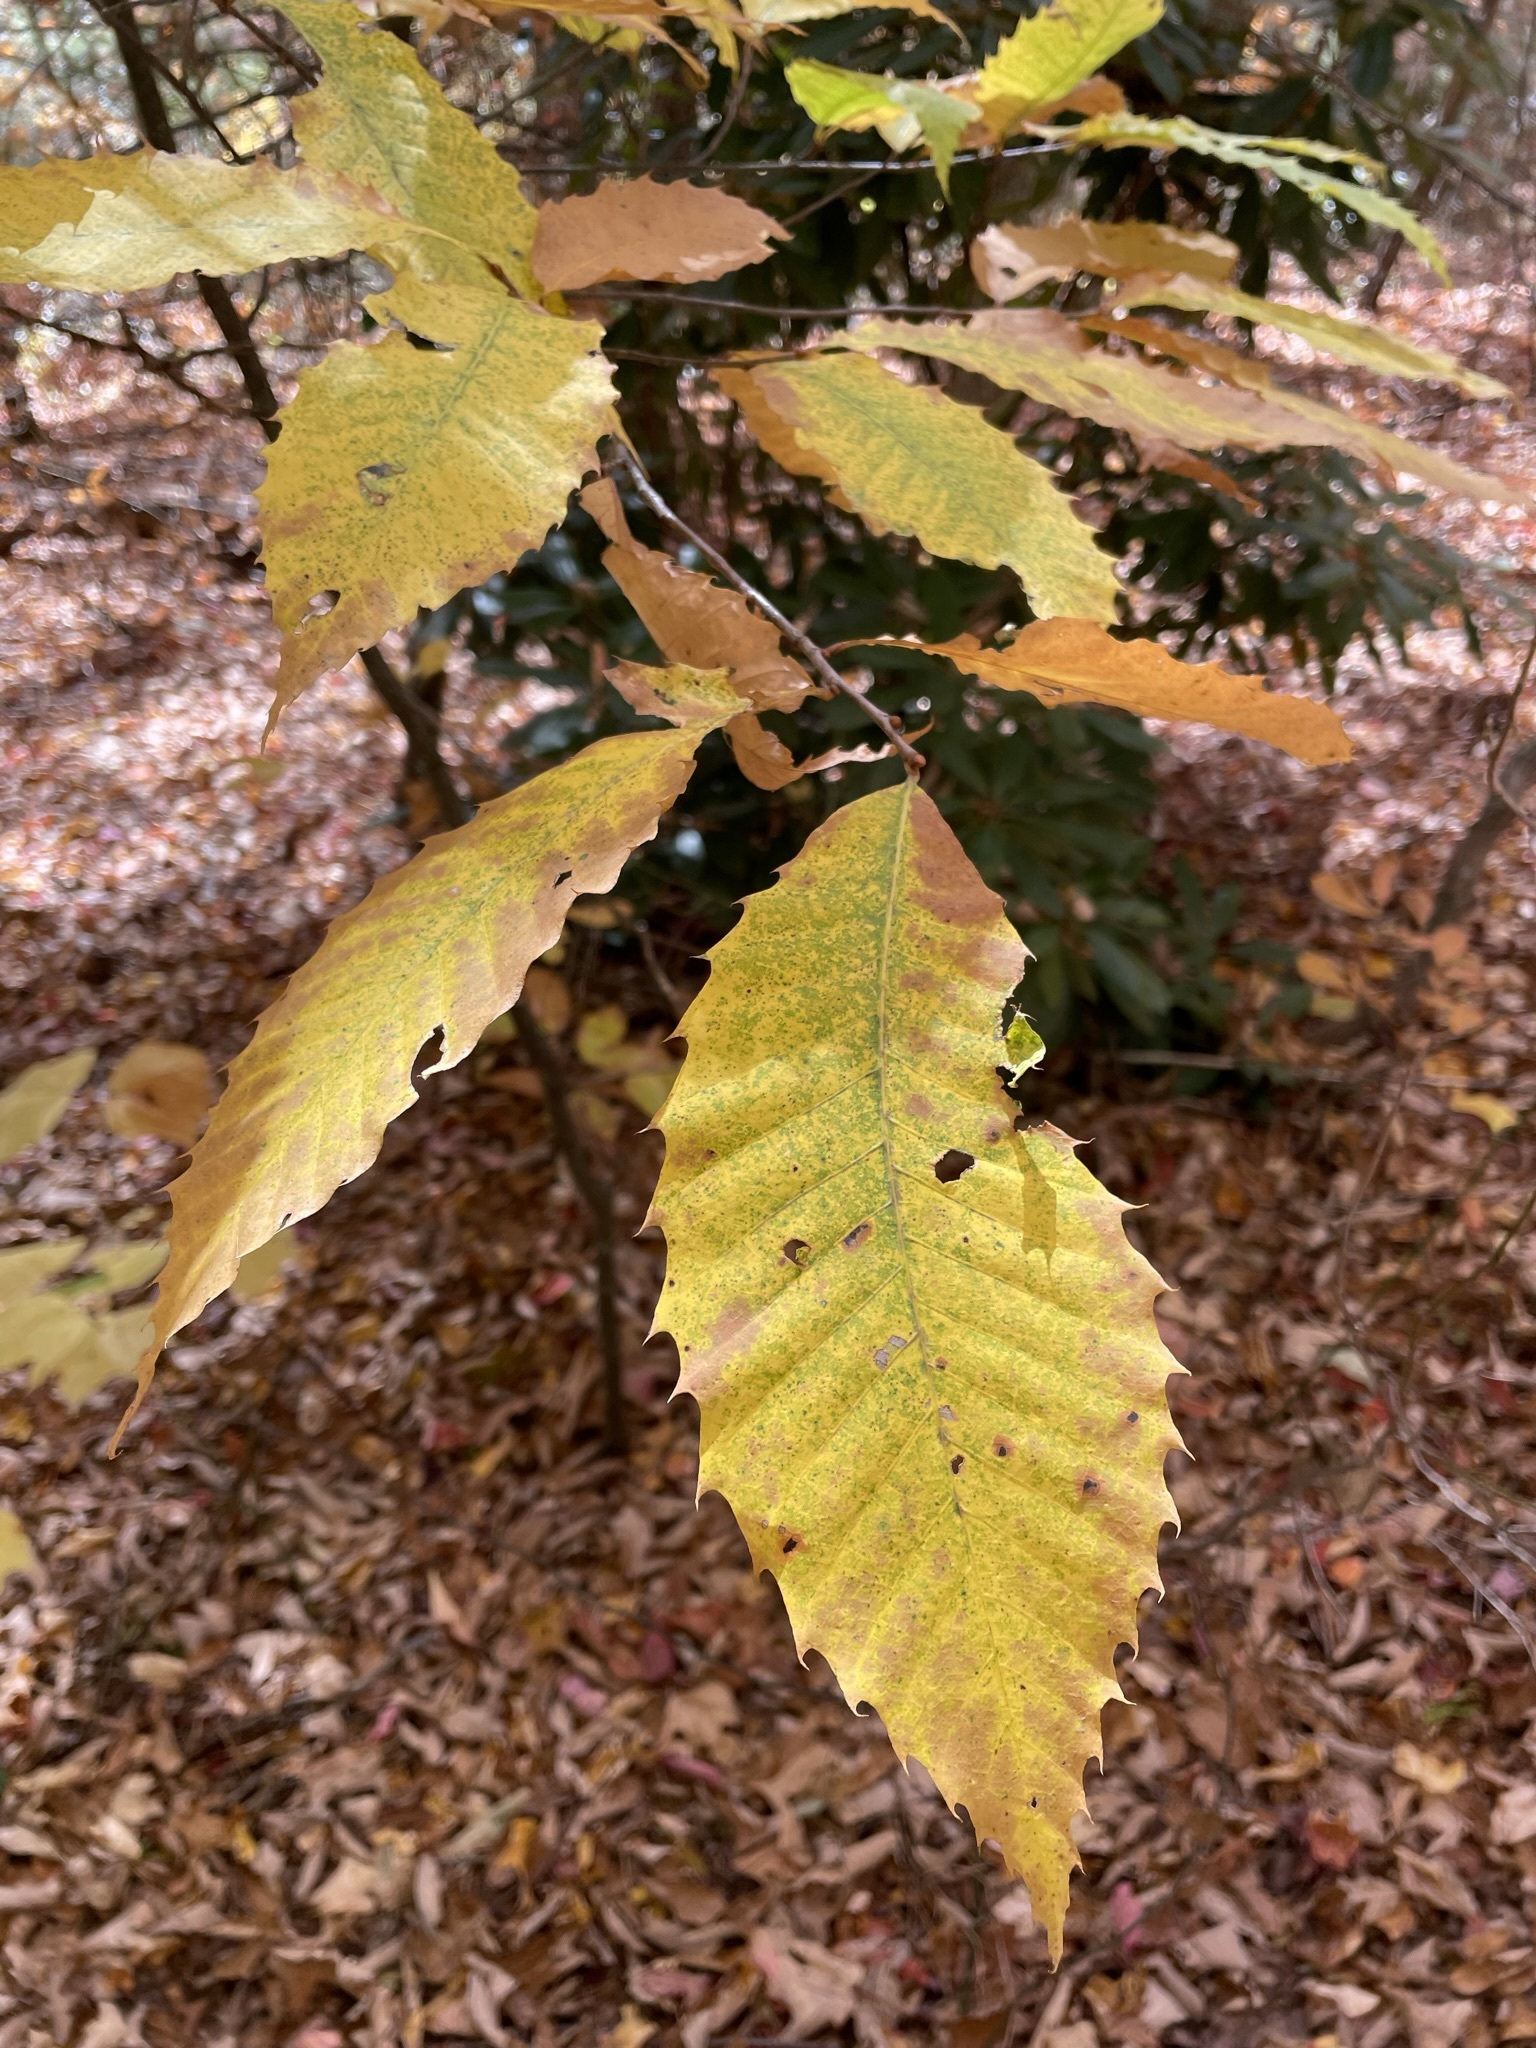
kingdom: Plantae
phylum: Tracheophyta
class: Magnoliopsida
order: Fagales
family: Fagaceae
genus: Castanea
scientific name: Castanea dentata
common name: American chestnut
